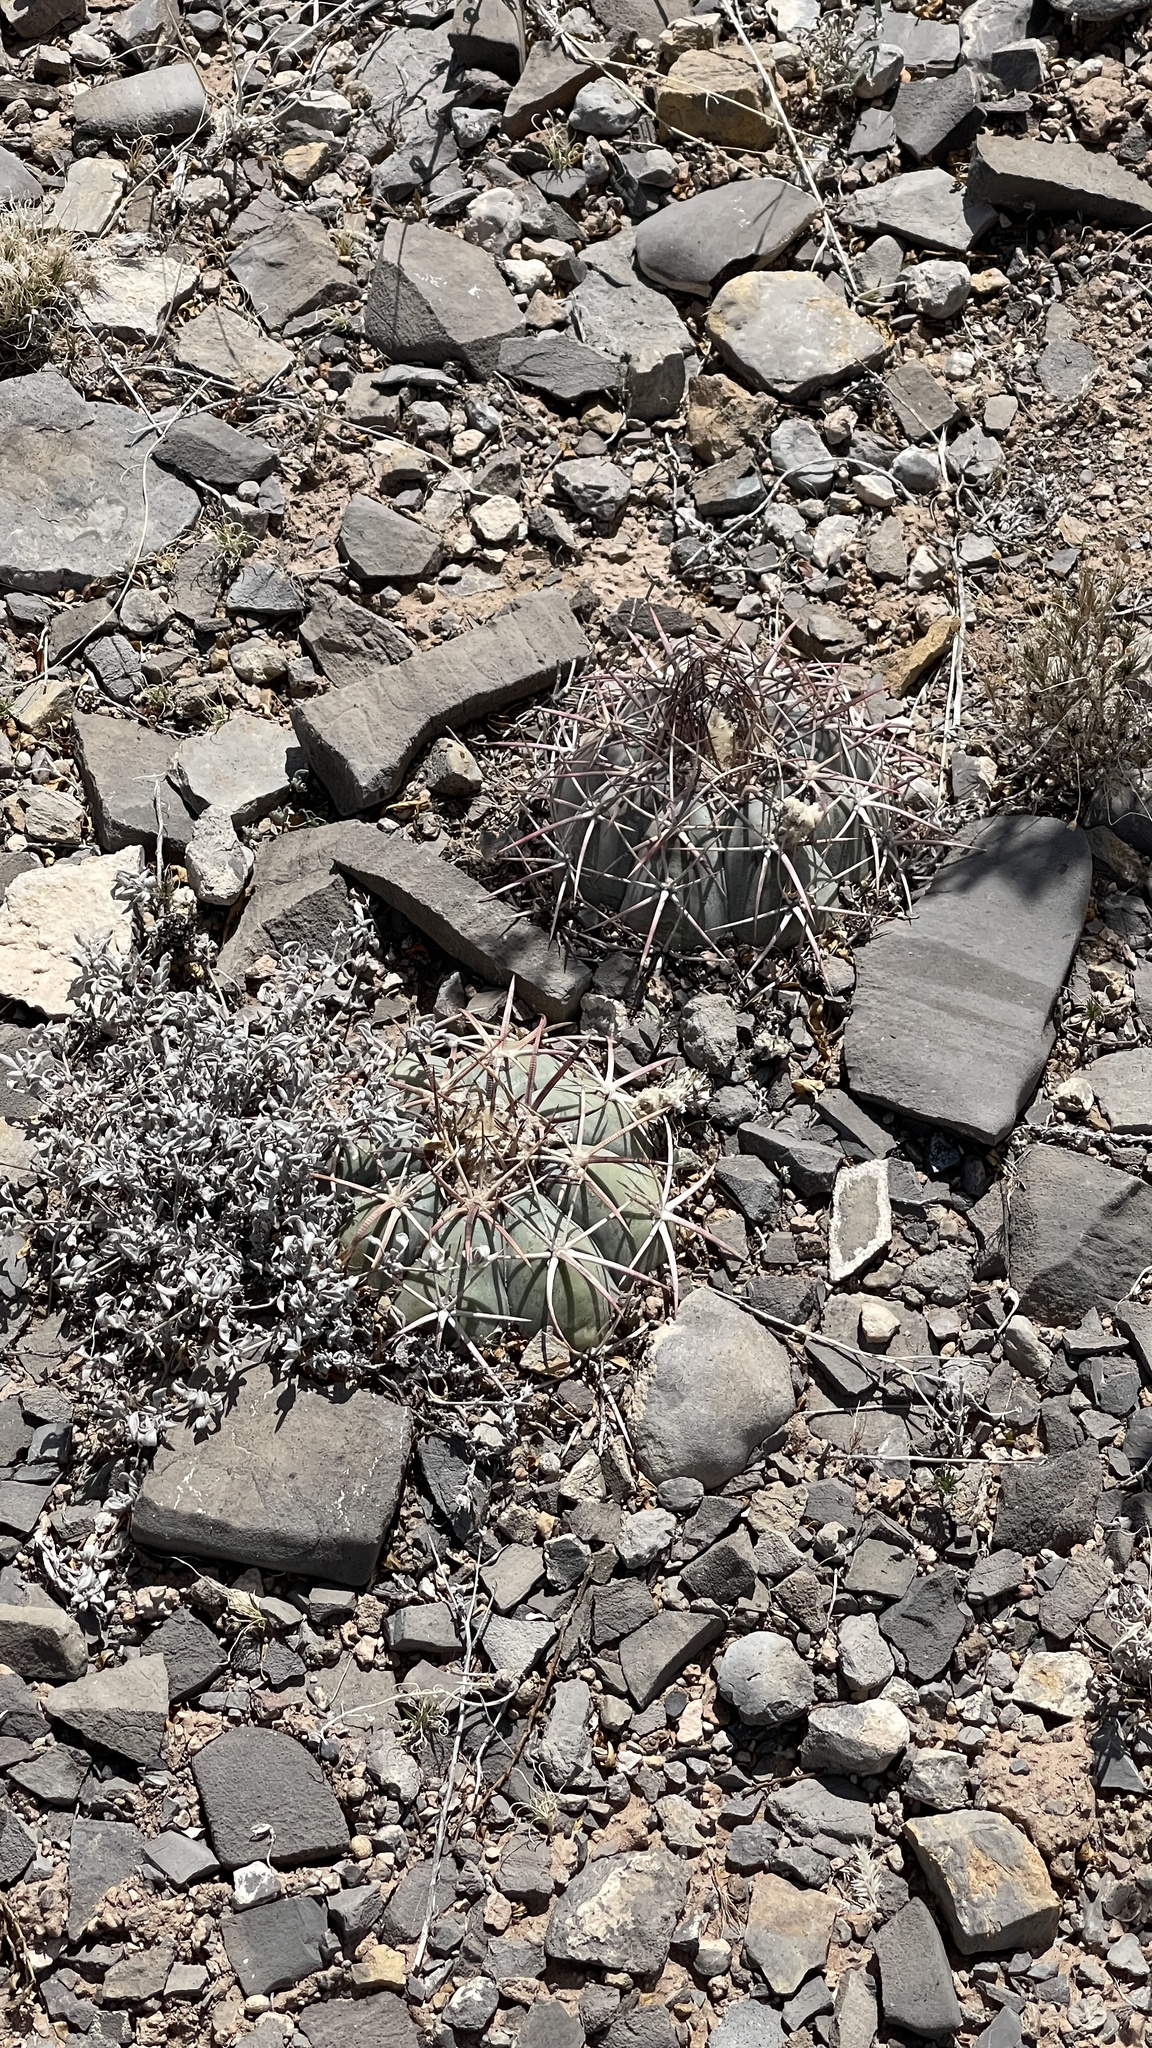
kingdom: Plantae
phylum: Tracheophyta
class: Magnoliopsida
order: Caryophyllales
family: Cactaceae
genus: Echinocactus
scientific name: Echinocactus horizonthalonius
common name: Devilshead
